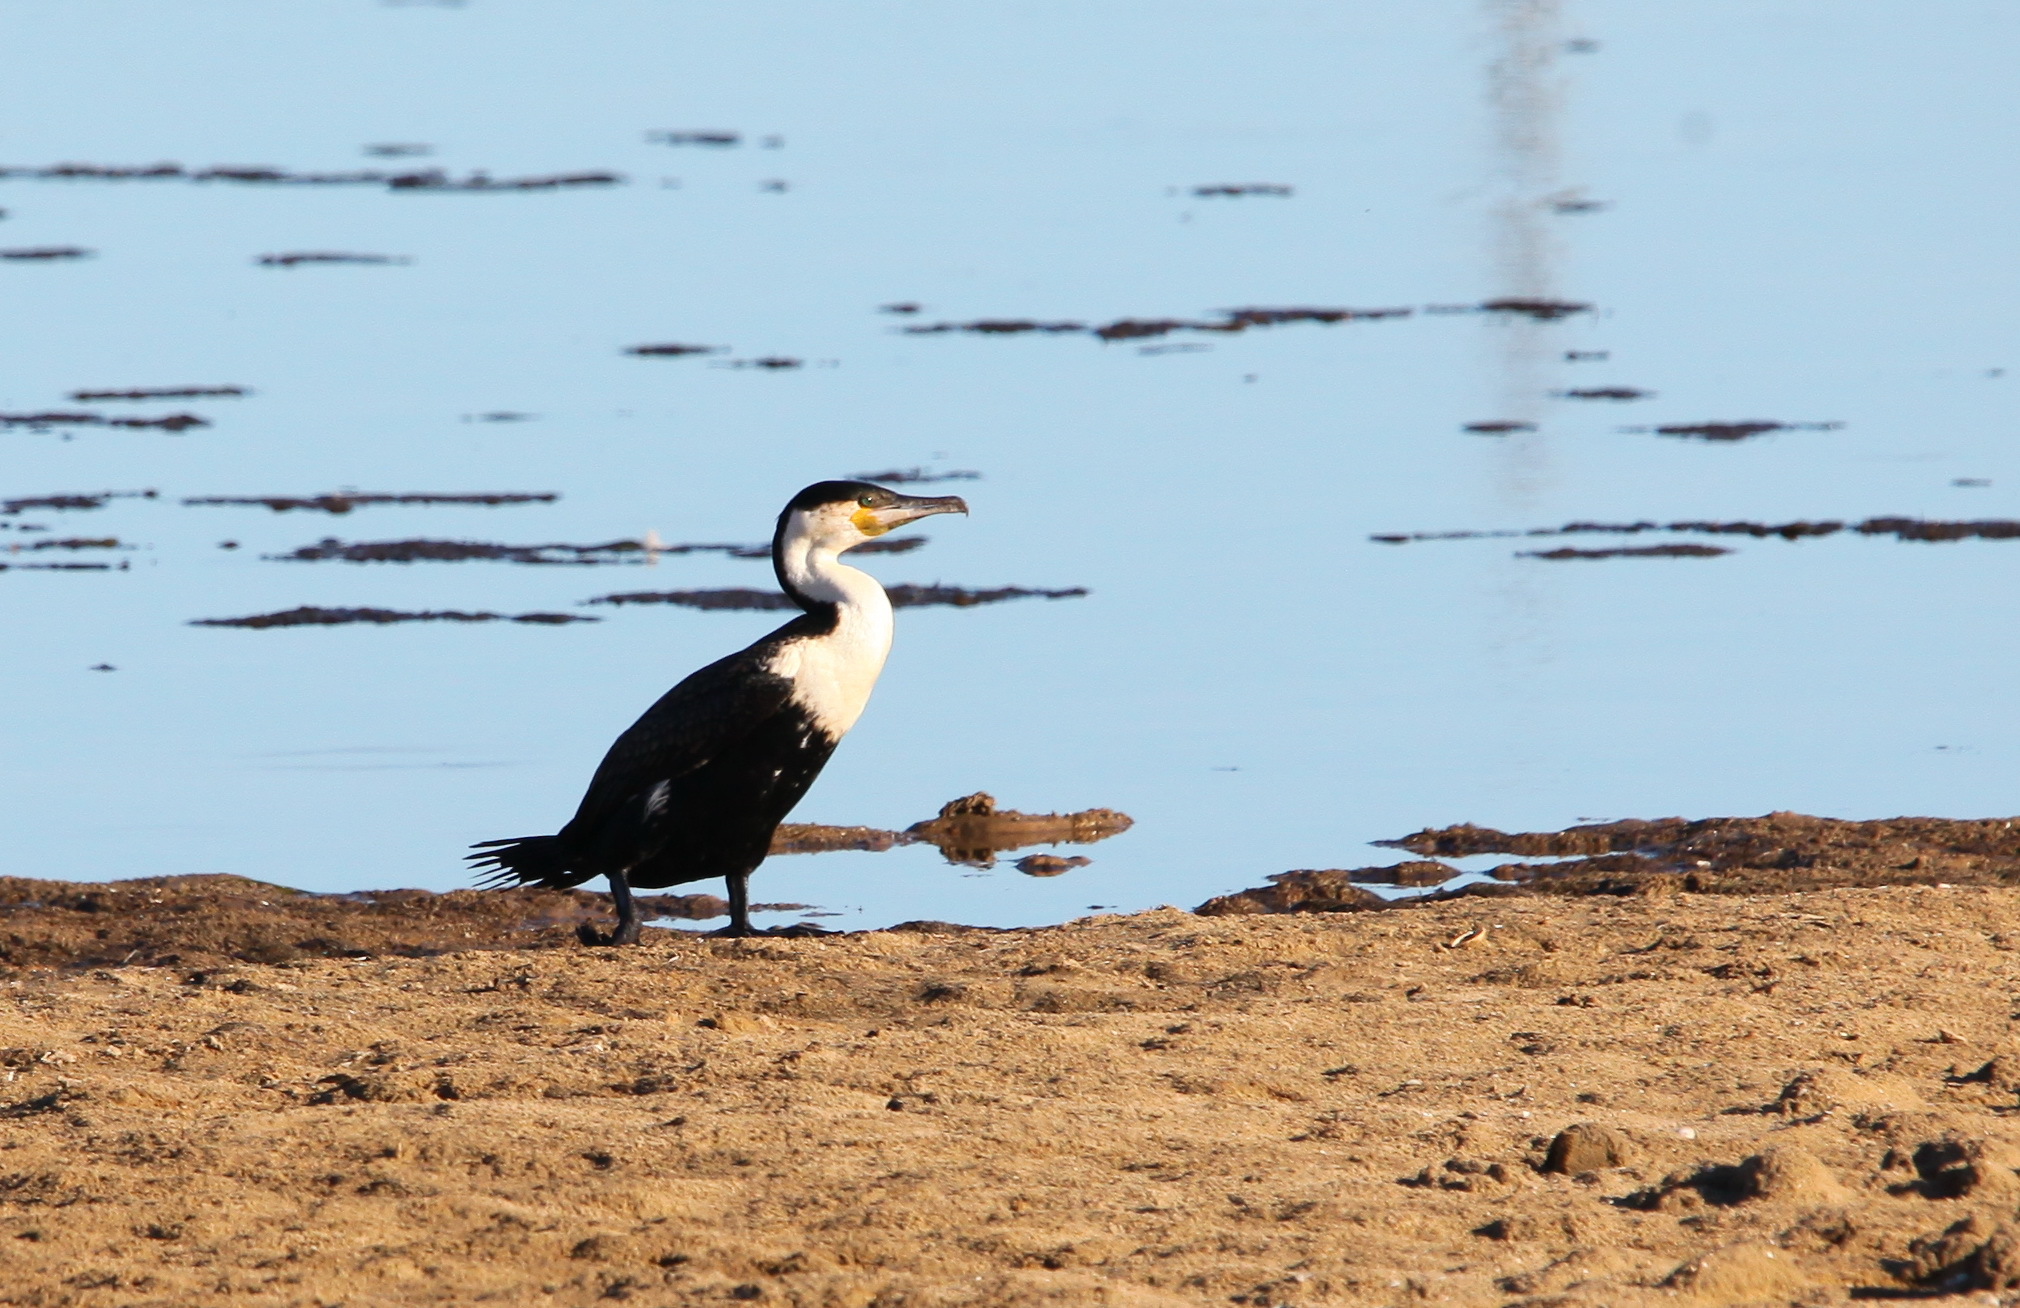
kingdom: Animalia
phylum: Chordata
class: Aves
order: Suliformes
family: Phalacrocoracidae
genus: Phalacrocorax
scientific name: Phalacrocorax carbo
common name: Great cormorant
